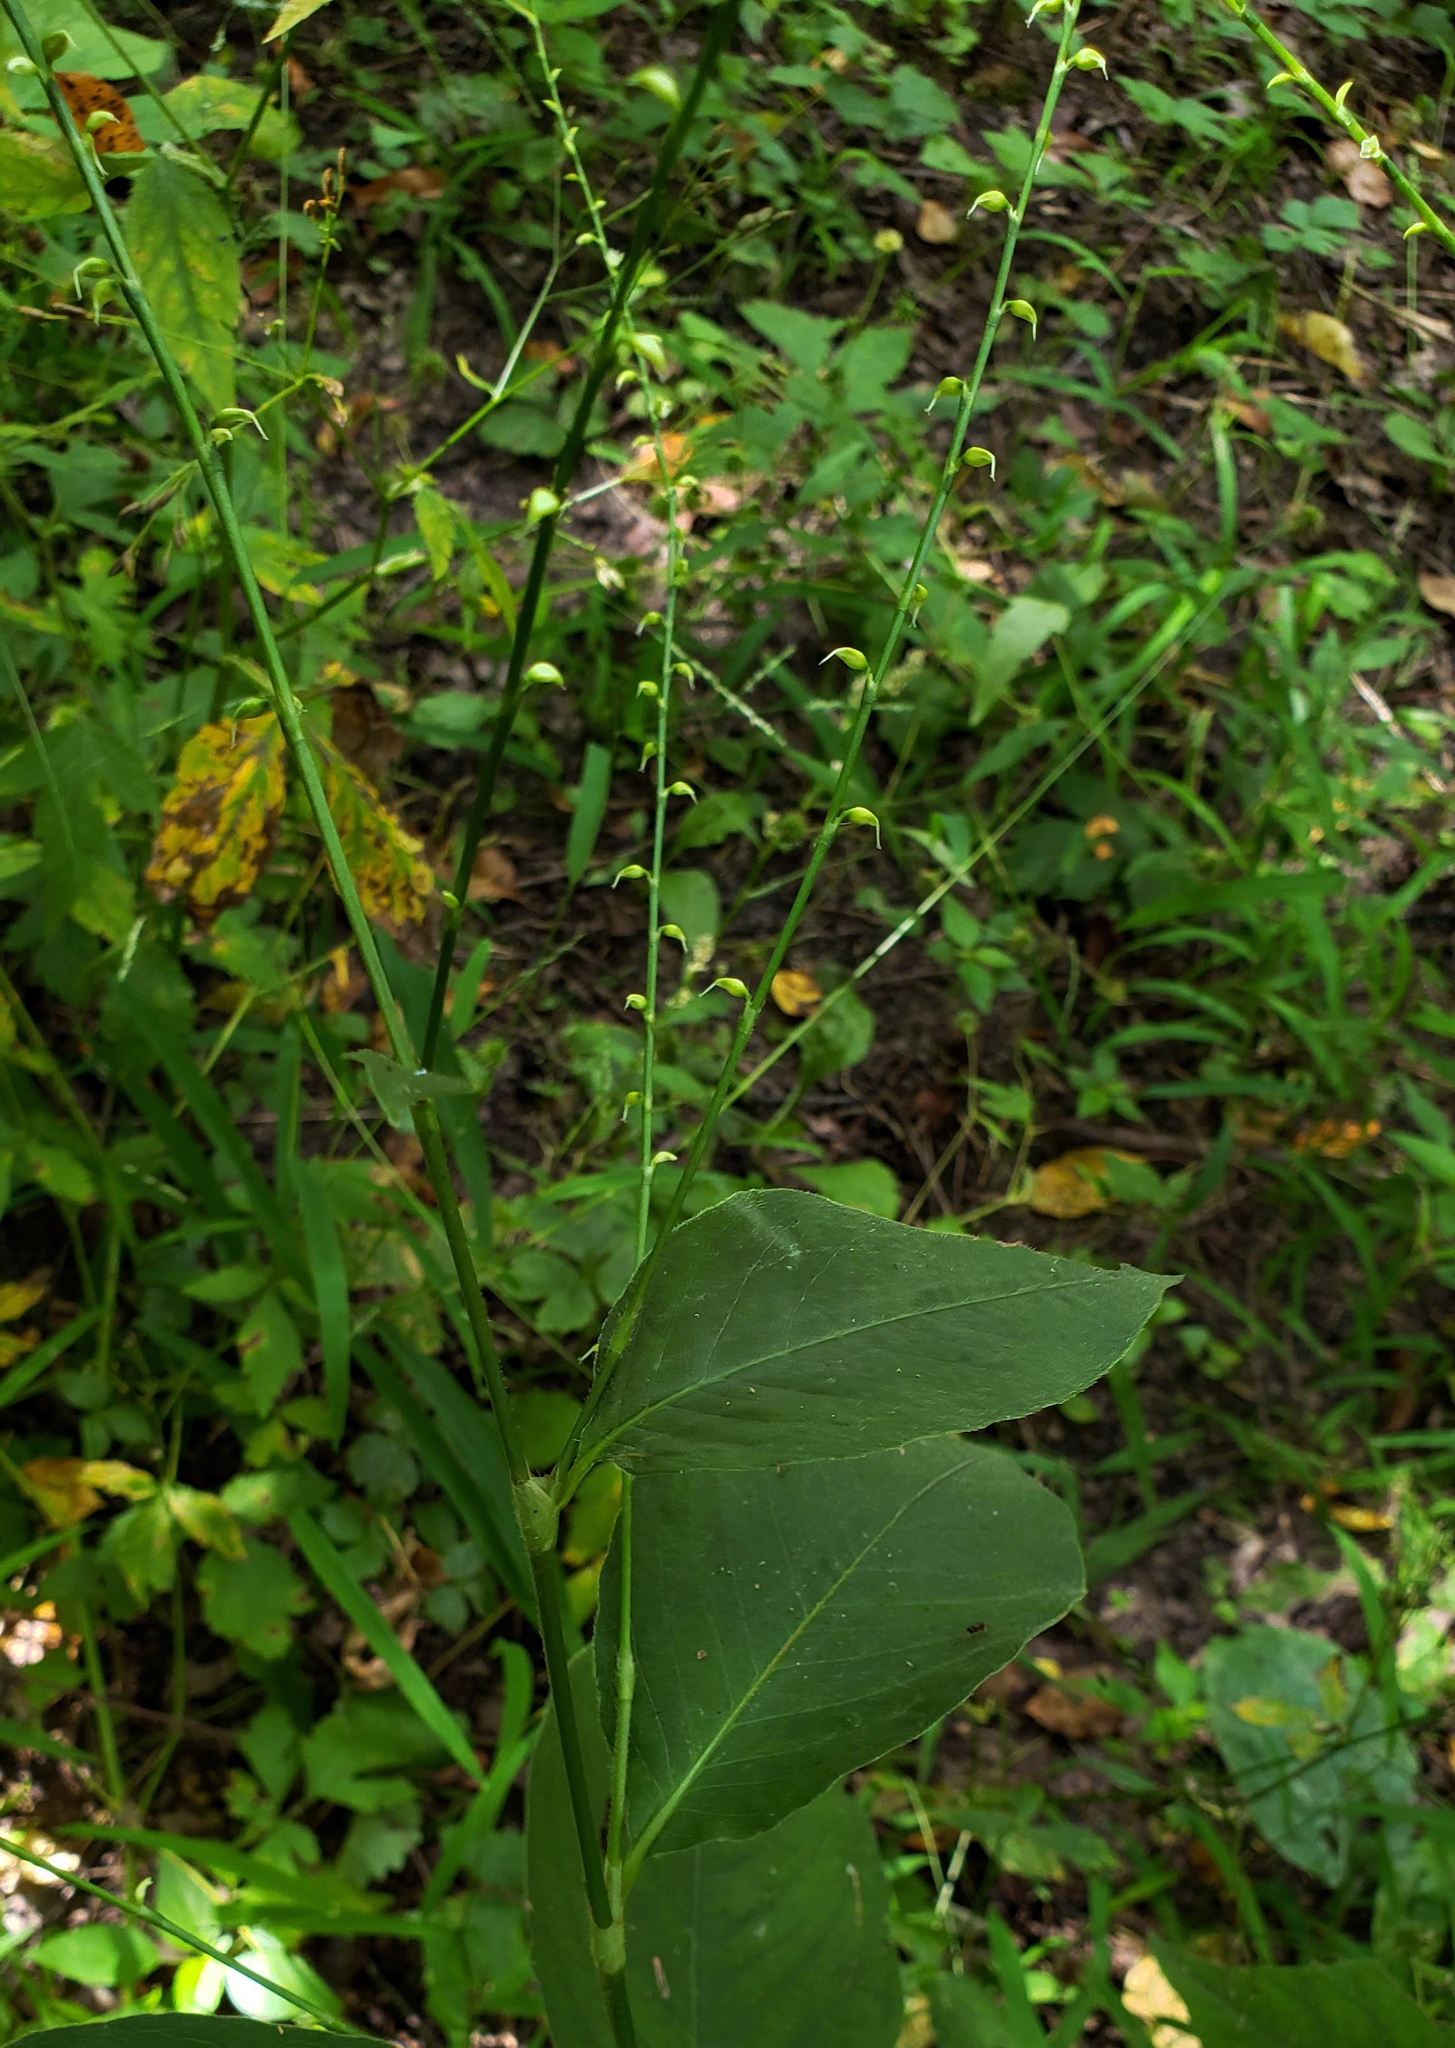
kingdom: Plantae
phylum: Tracheophyta
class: Magnoliopsida
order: Caryophyllales
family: Polygonaceae
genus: Persicaria
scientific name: Persicaria virginiana
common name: Jumpseed
